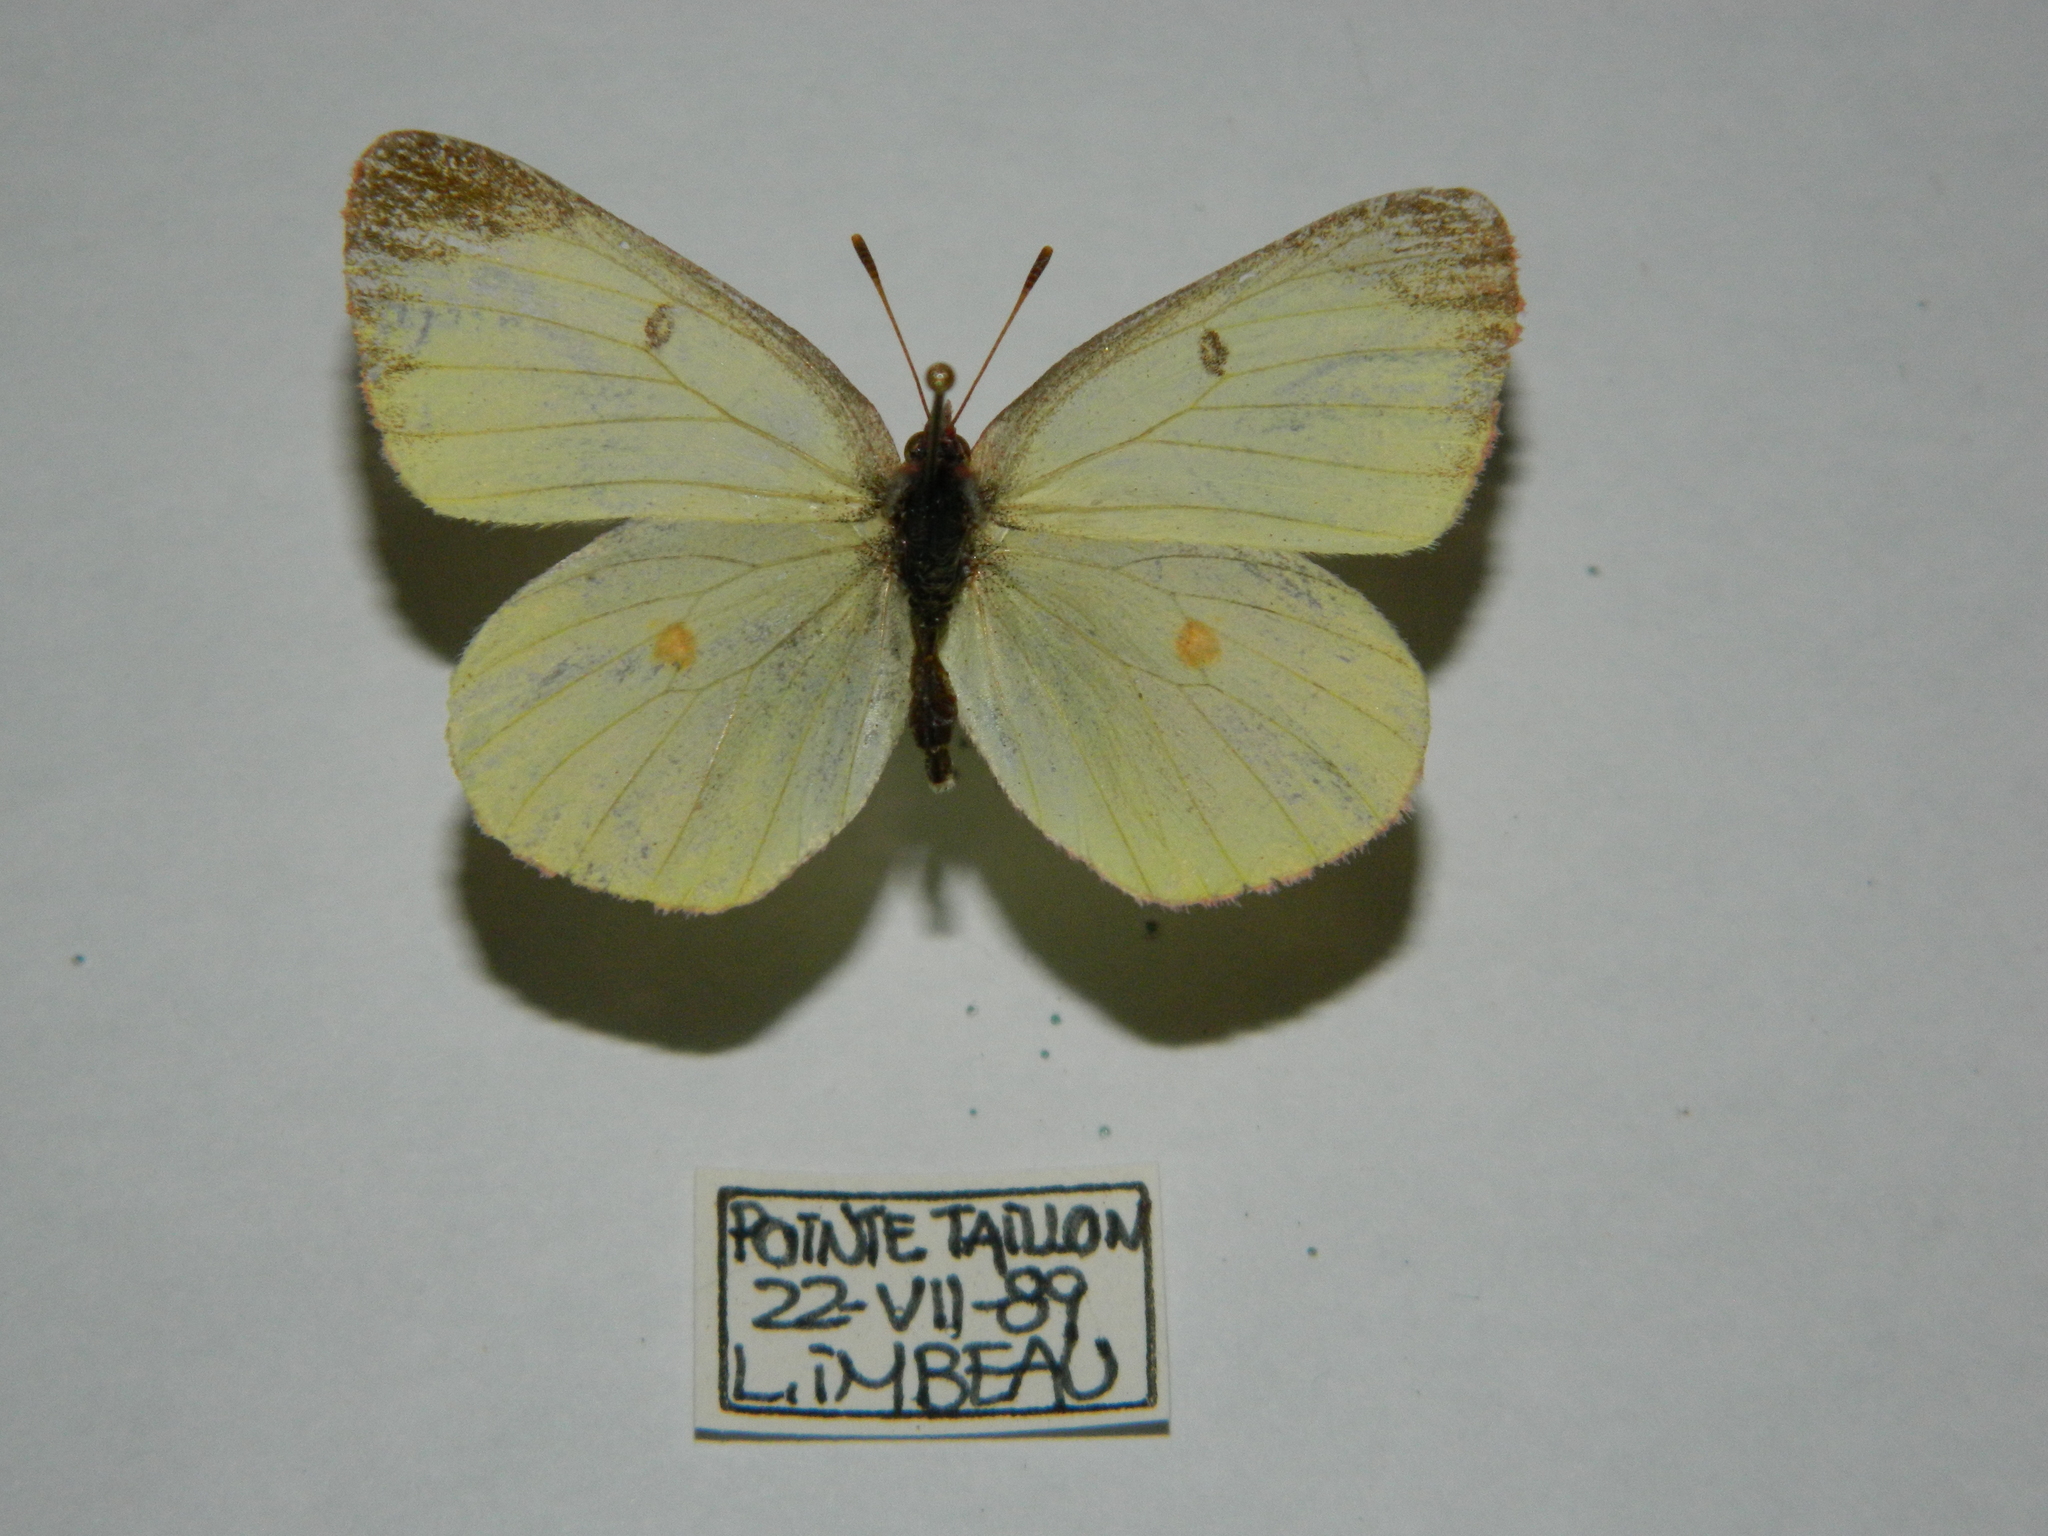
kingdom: Animalia
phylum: Arthropoda
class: Insecta
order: Lepidoptera
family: Pieridae
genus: Colias
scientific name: Colias interior
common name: Pink-edged sulphur
